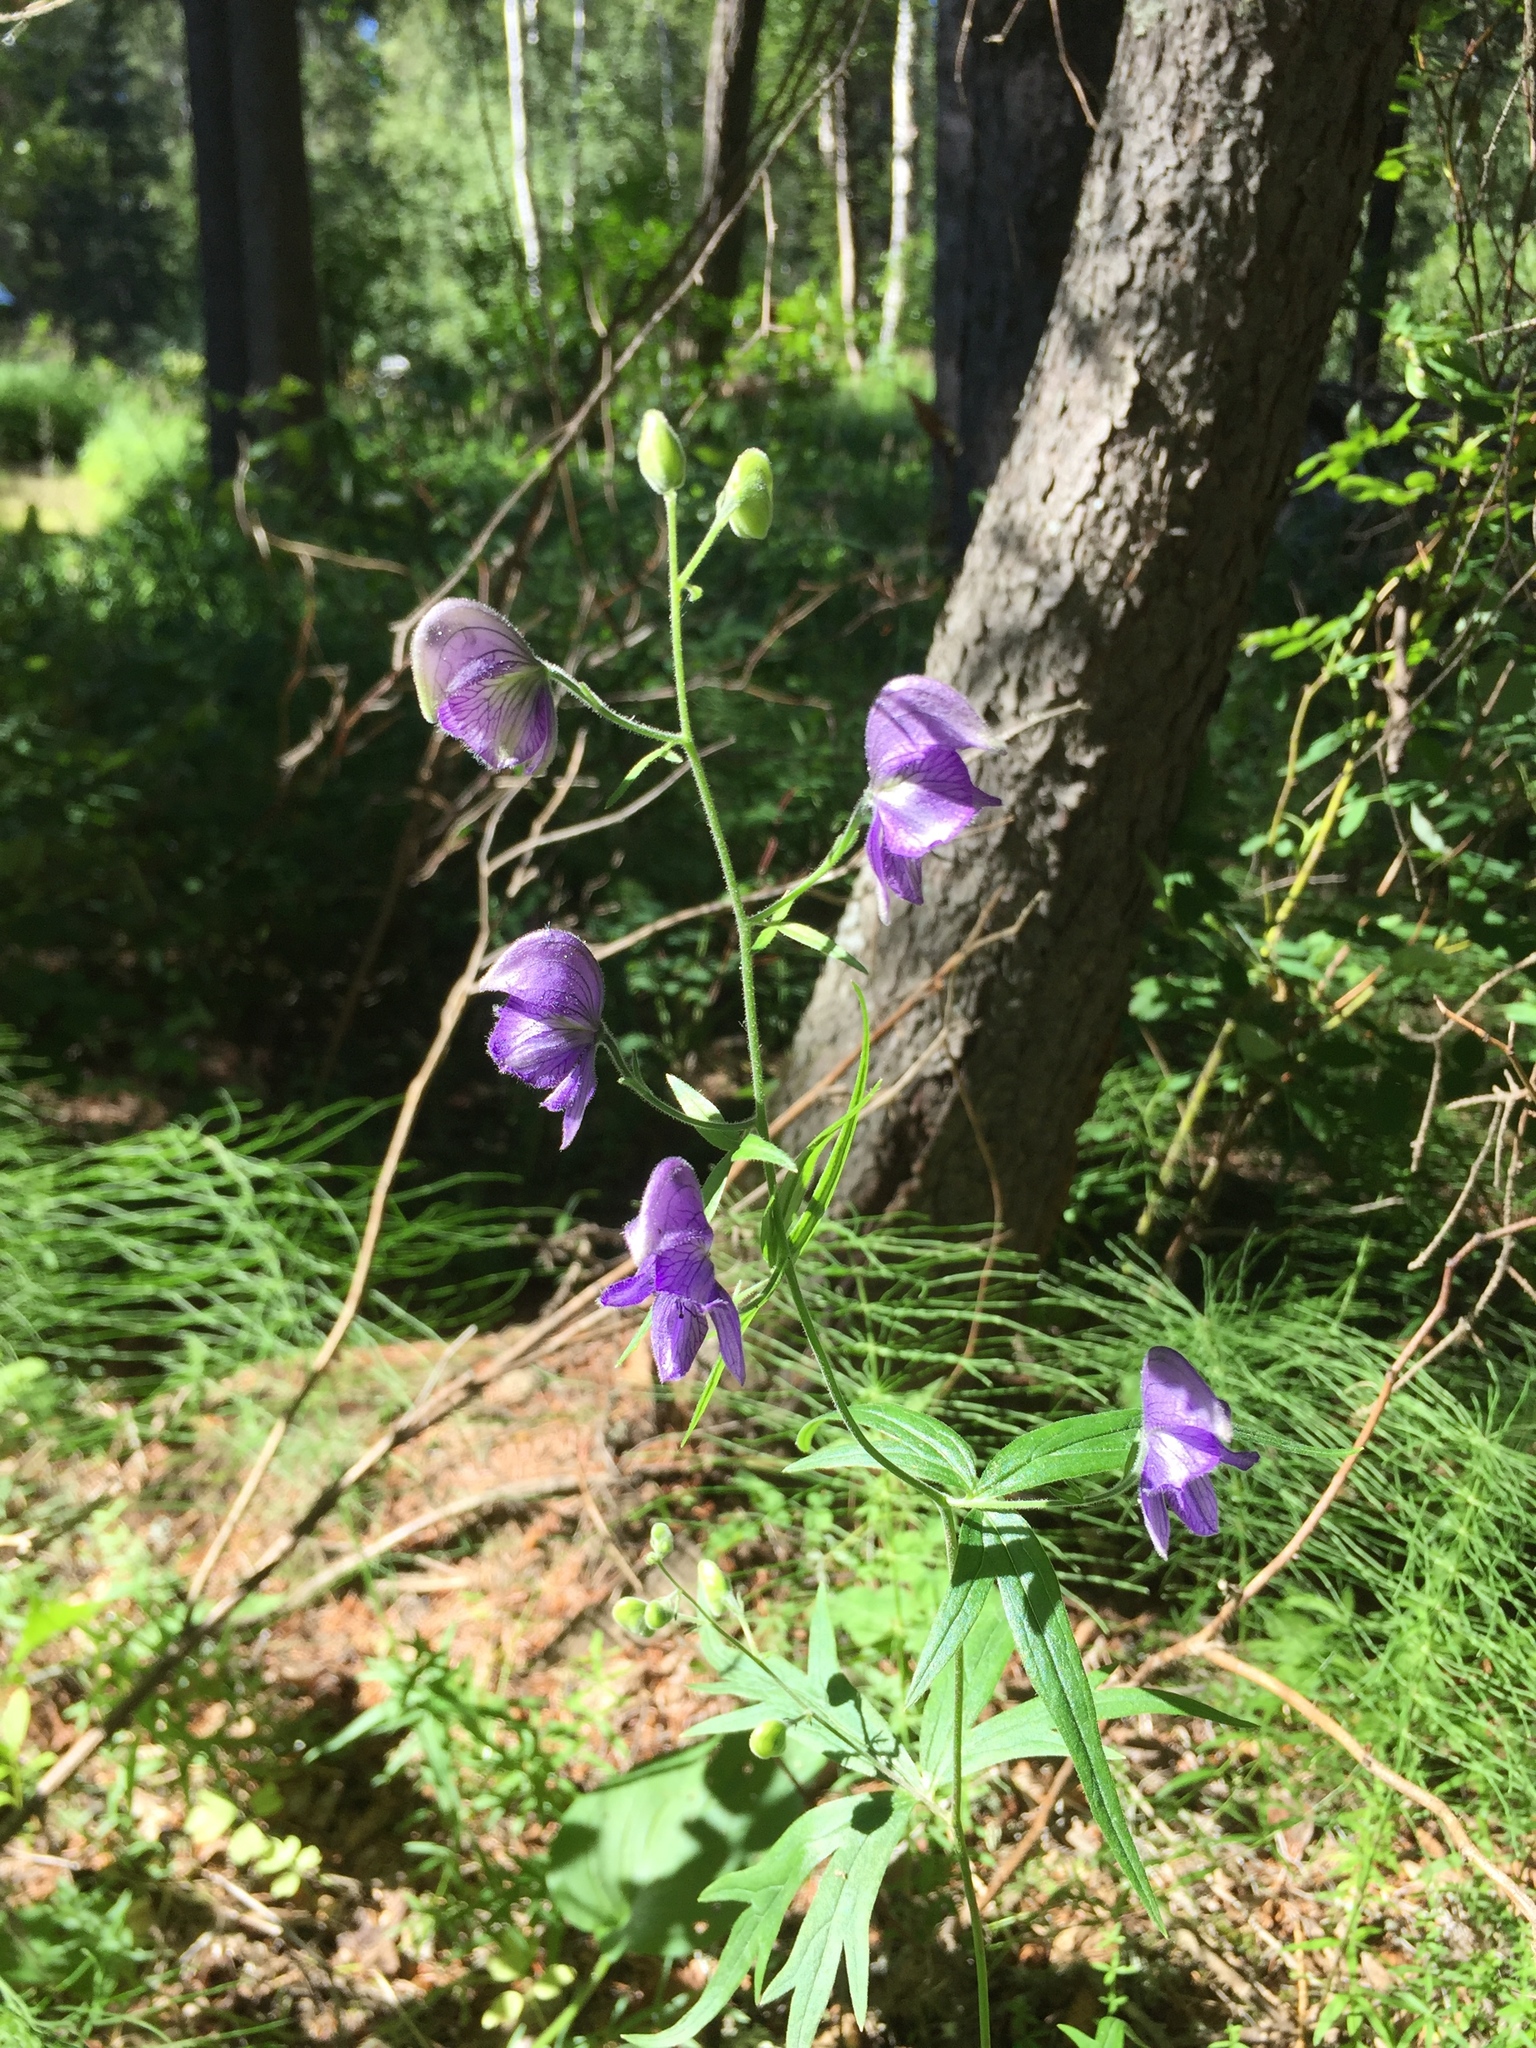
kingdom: Plantae
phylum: Tracheophyta
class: Magnoliopsida
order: Ranunculales
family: Ranunculaceae
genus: Aconitum
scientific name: Aconitum delphiniifolium
